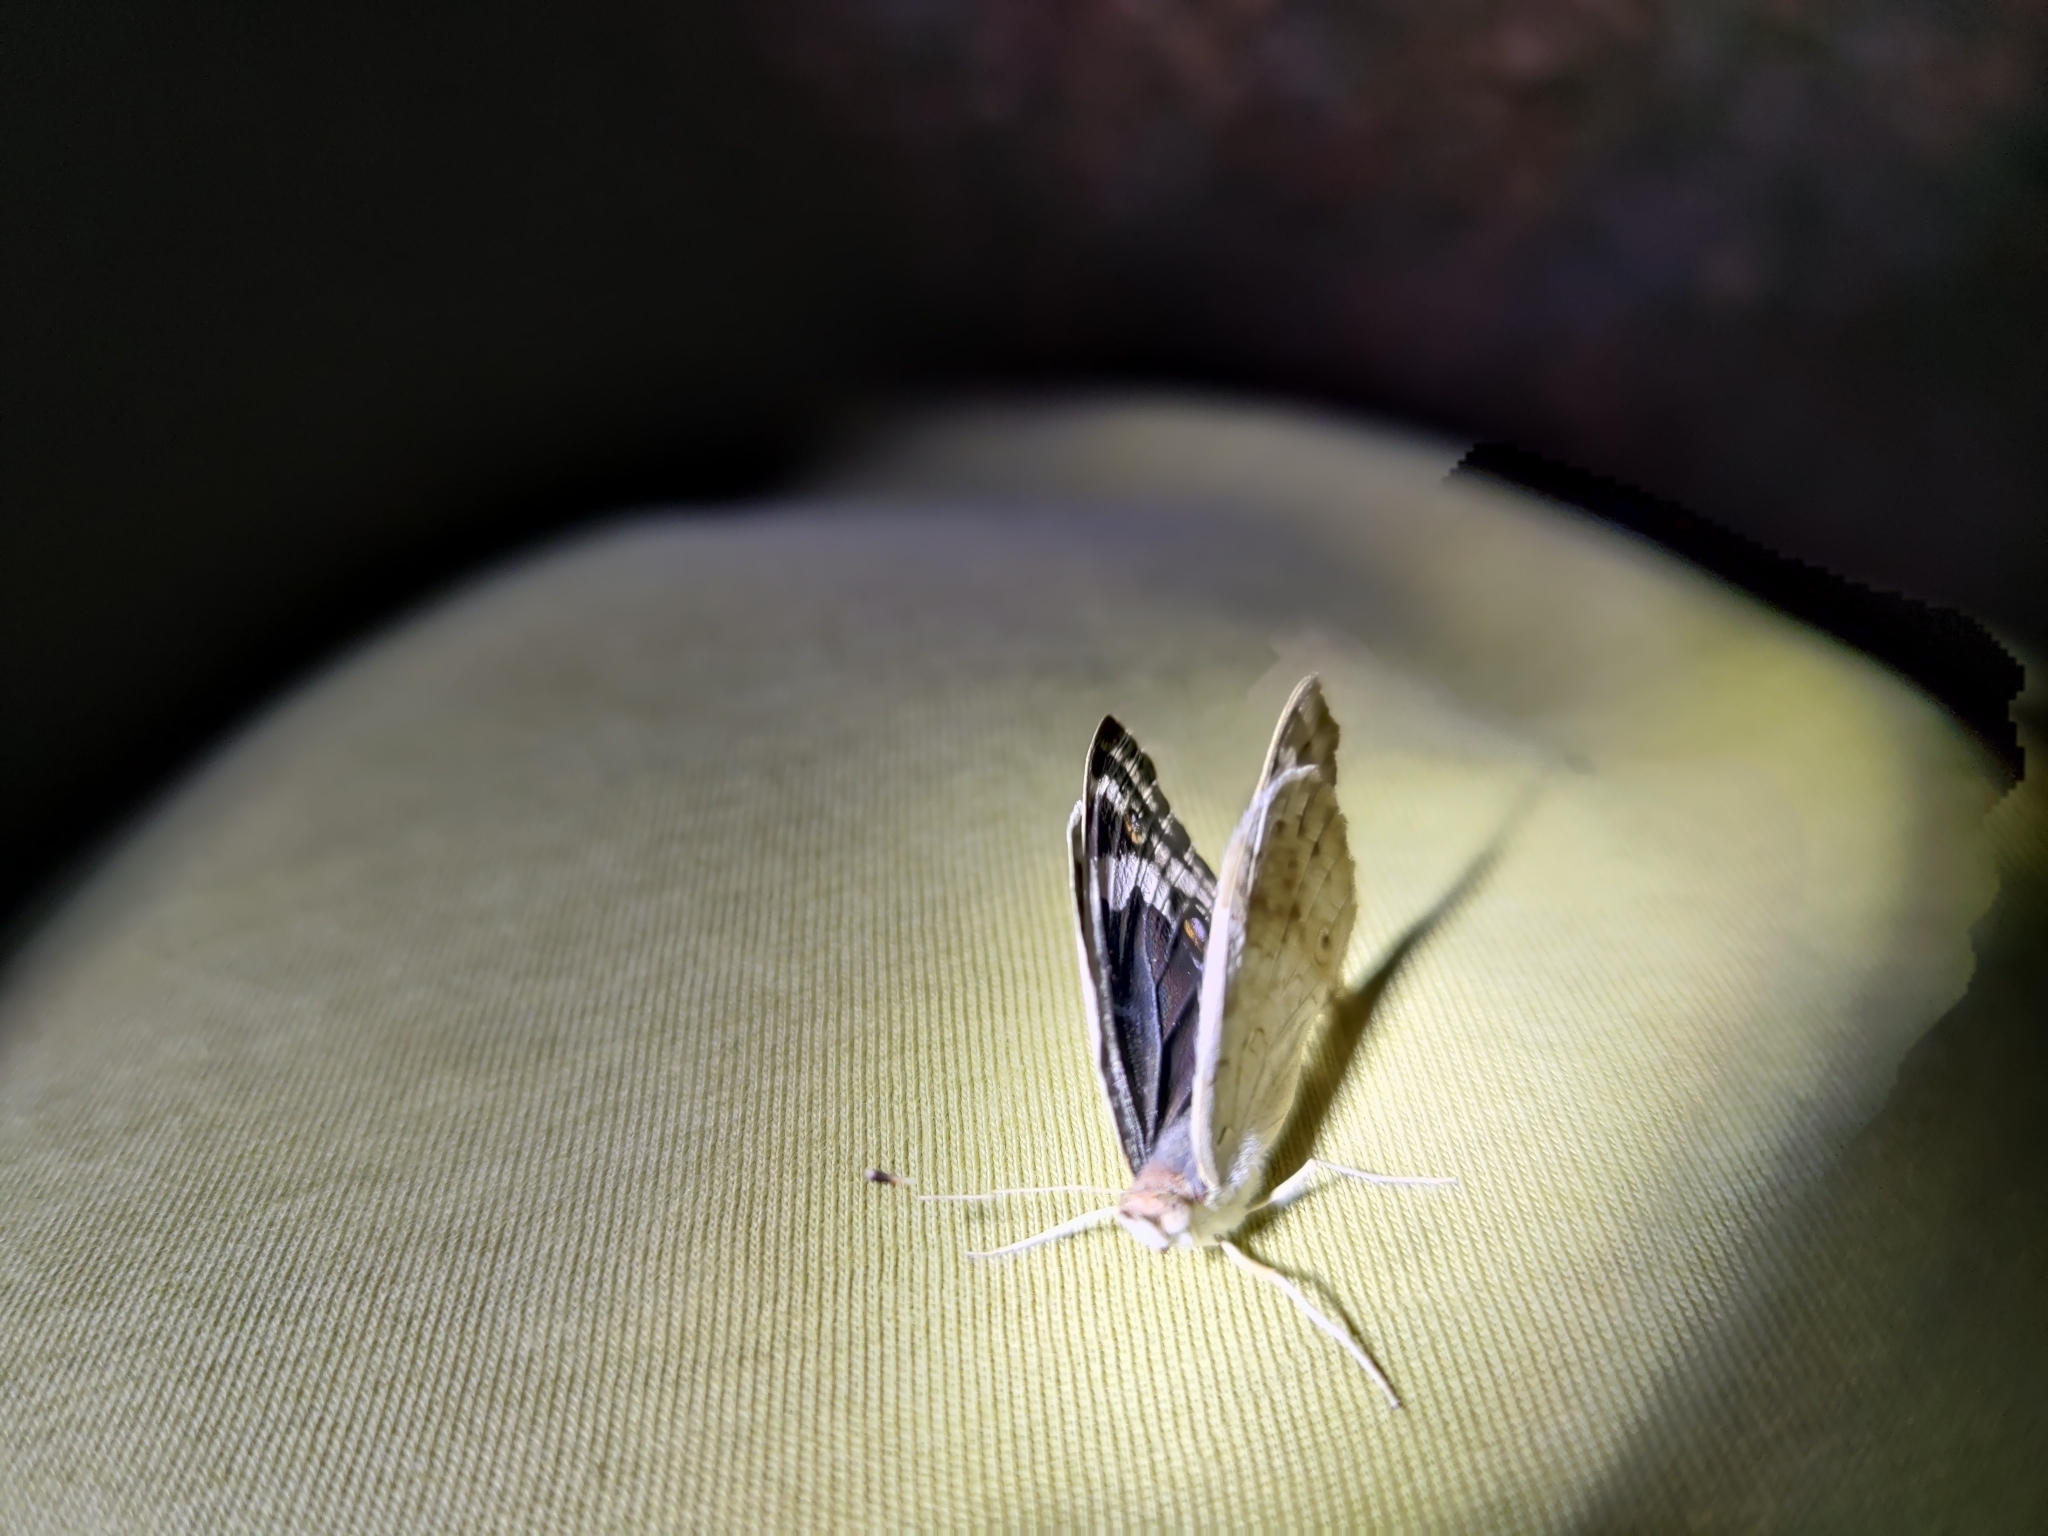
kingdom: Animalia
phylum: Arthropoda
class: Insecta
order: Lepidoptera
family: Nymphalidae
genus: Junonia
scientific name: Junonia orithya
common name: Blue pansy
